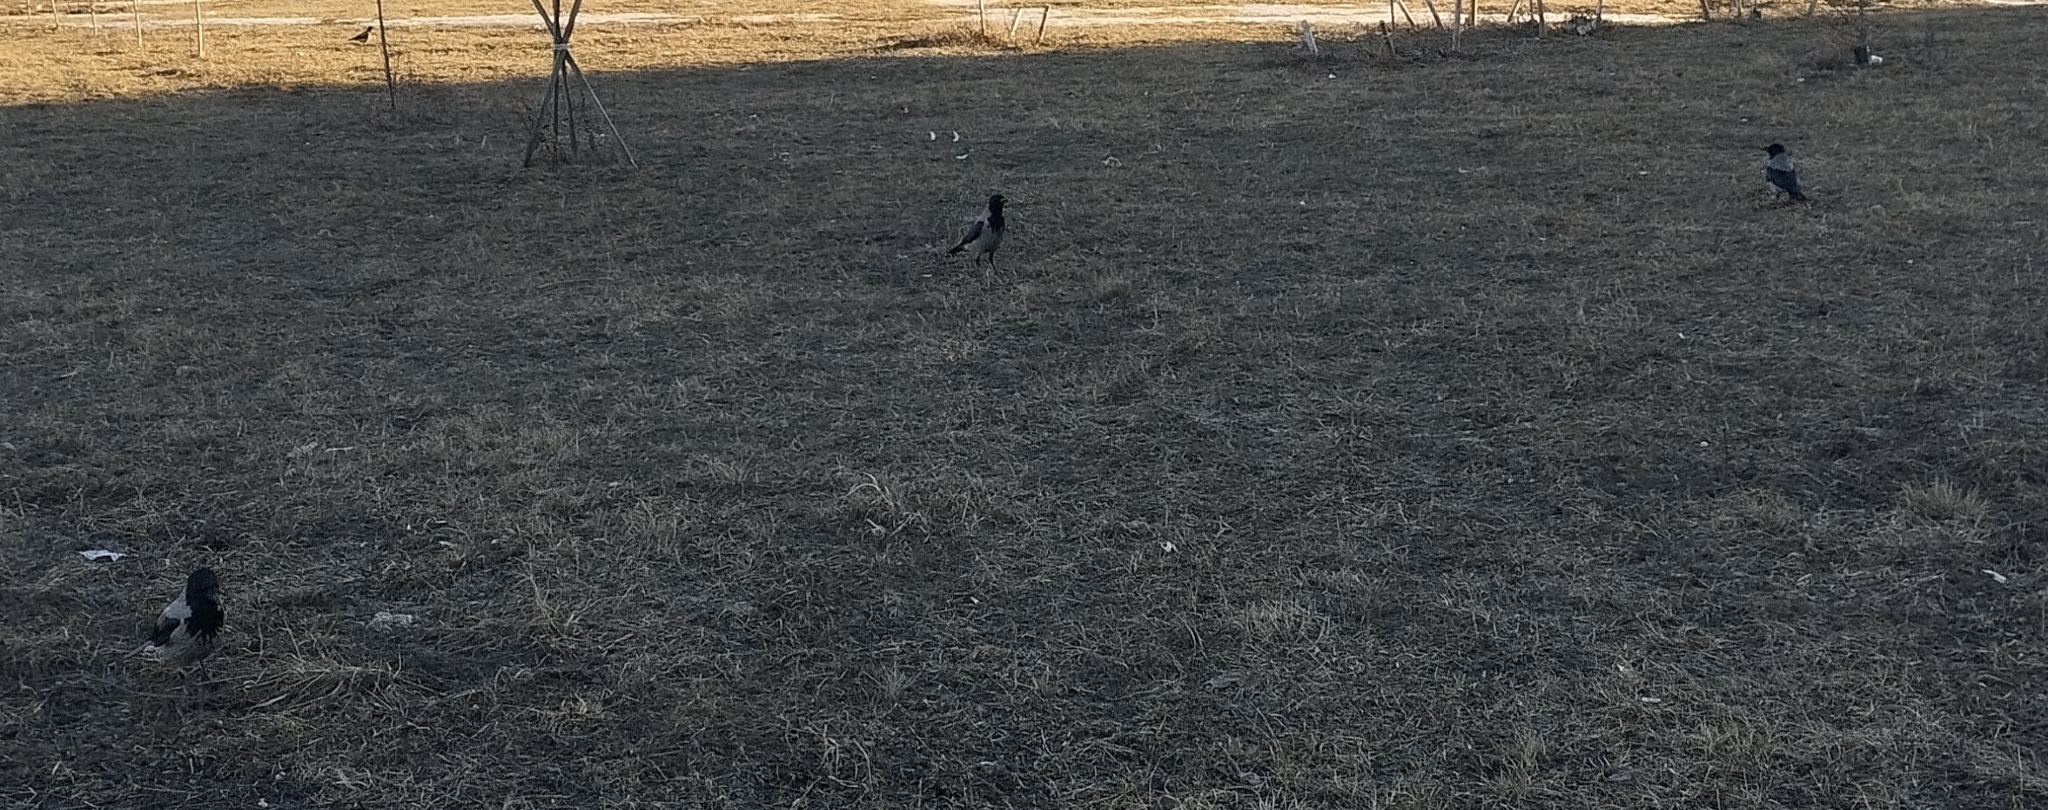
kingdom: Animalia
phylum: Chordata
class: Aves
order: Passeriformes
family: Corvidae
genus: Corvus
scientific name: Corvus cornix
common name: Hooded crow
